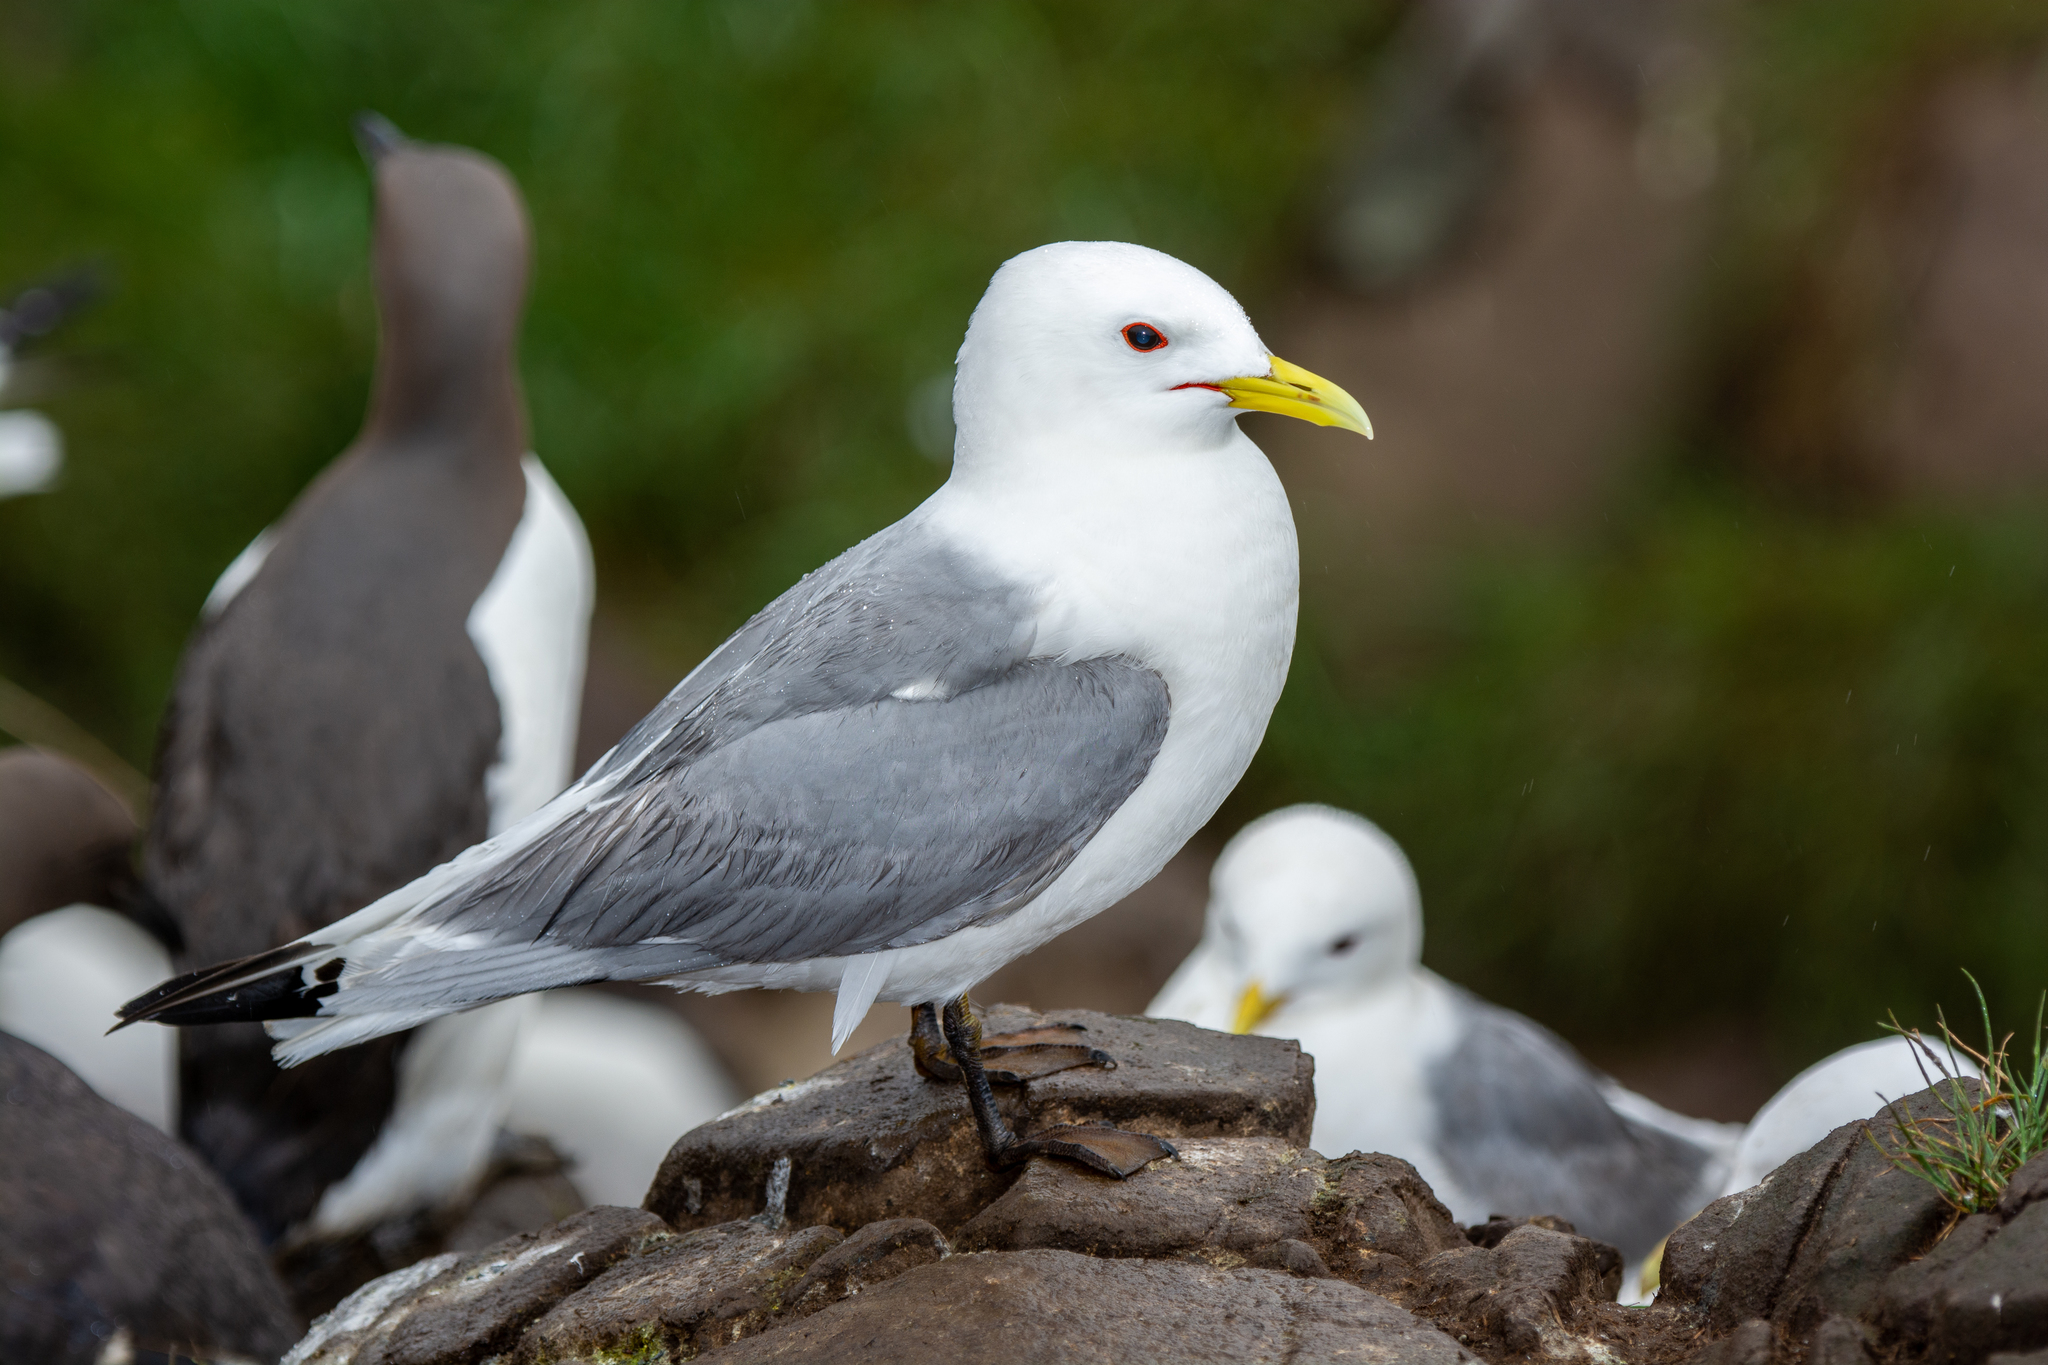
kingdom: Animalia
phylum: Chordata
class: Aves
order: Charadriiformes
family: Laridae
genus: Rissa
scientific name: Rissa tridactyla
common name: Black-legged kittiwake
